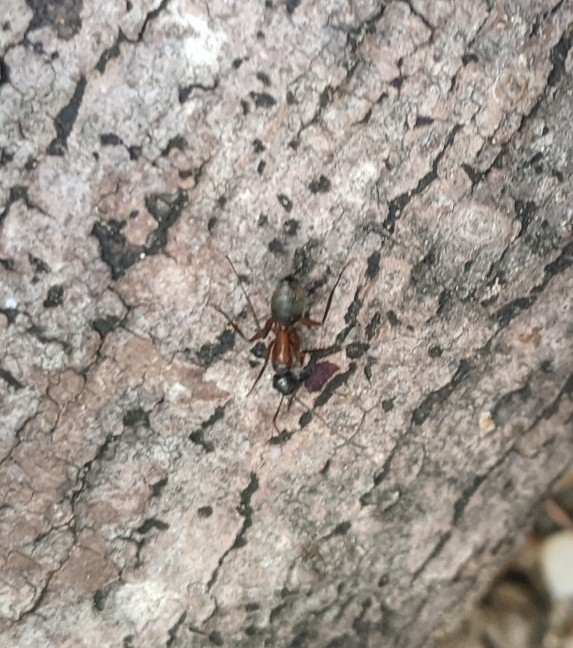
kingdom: Animalia
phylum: Arthropoda
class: Insecta
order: Hymenoptera
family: Formicidae
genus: Camponotus
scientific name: Camponotus chromaiodes
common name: Red carpenter ant
